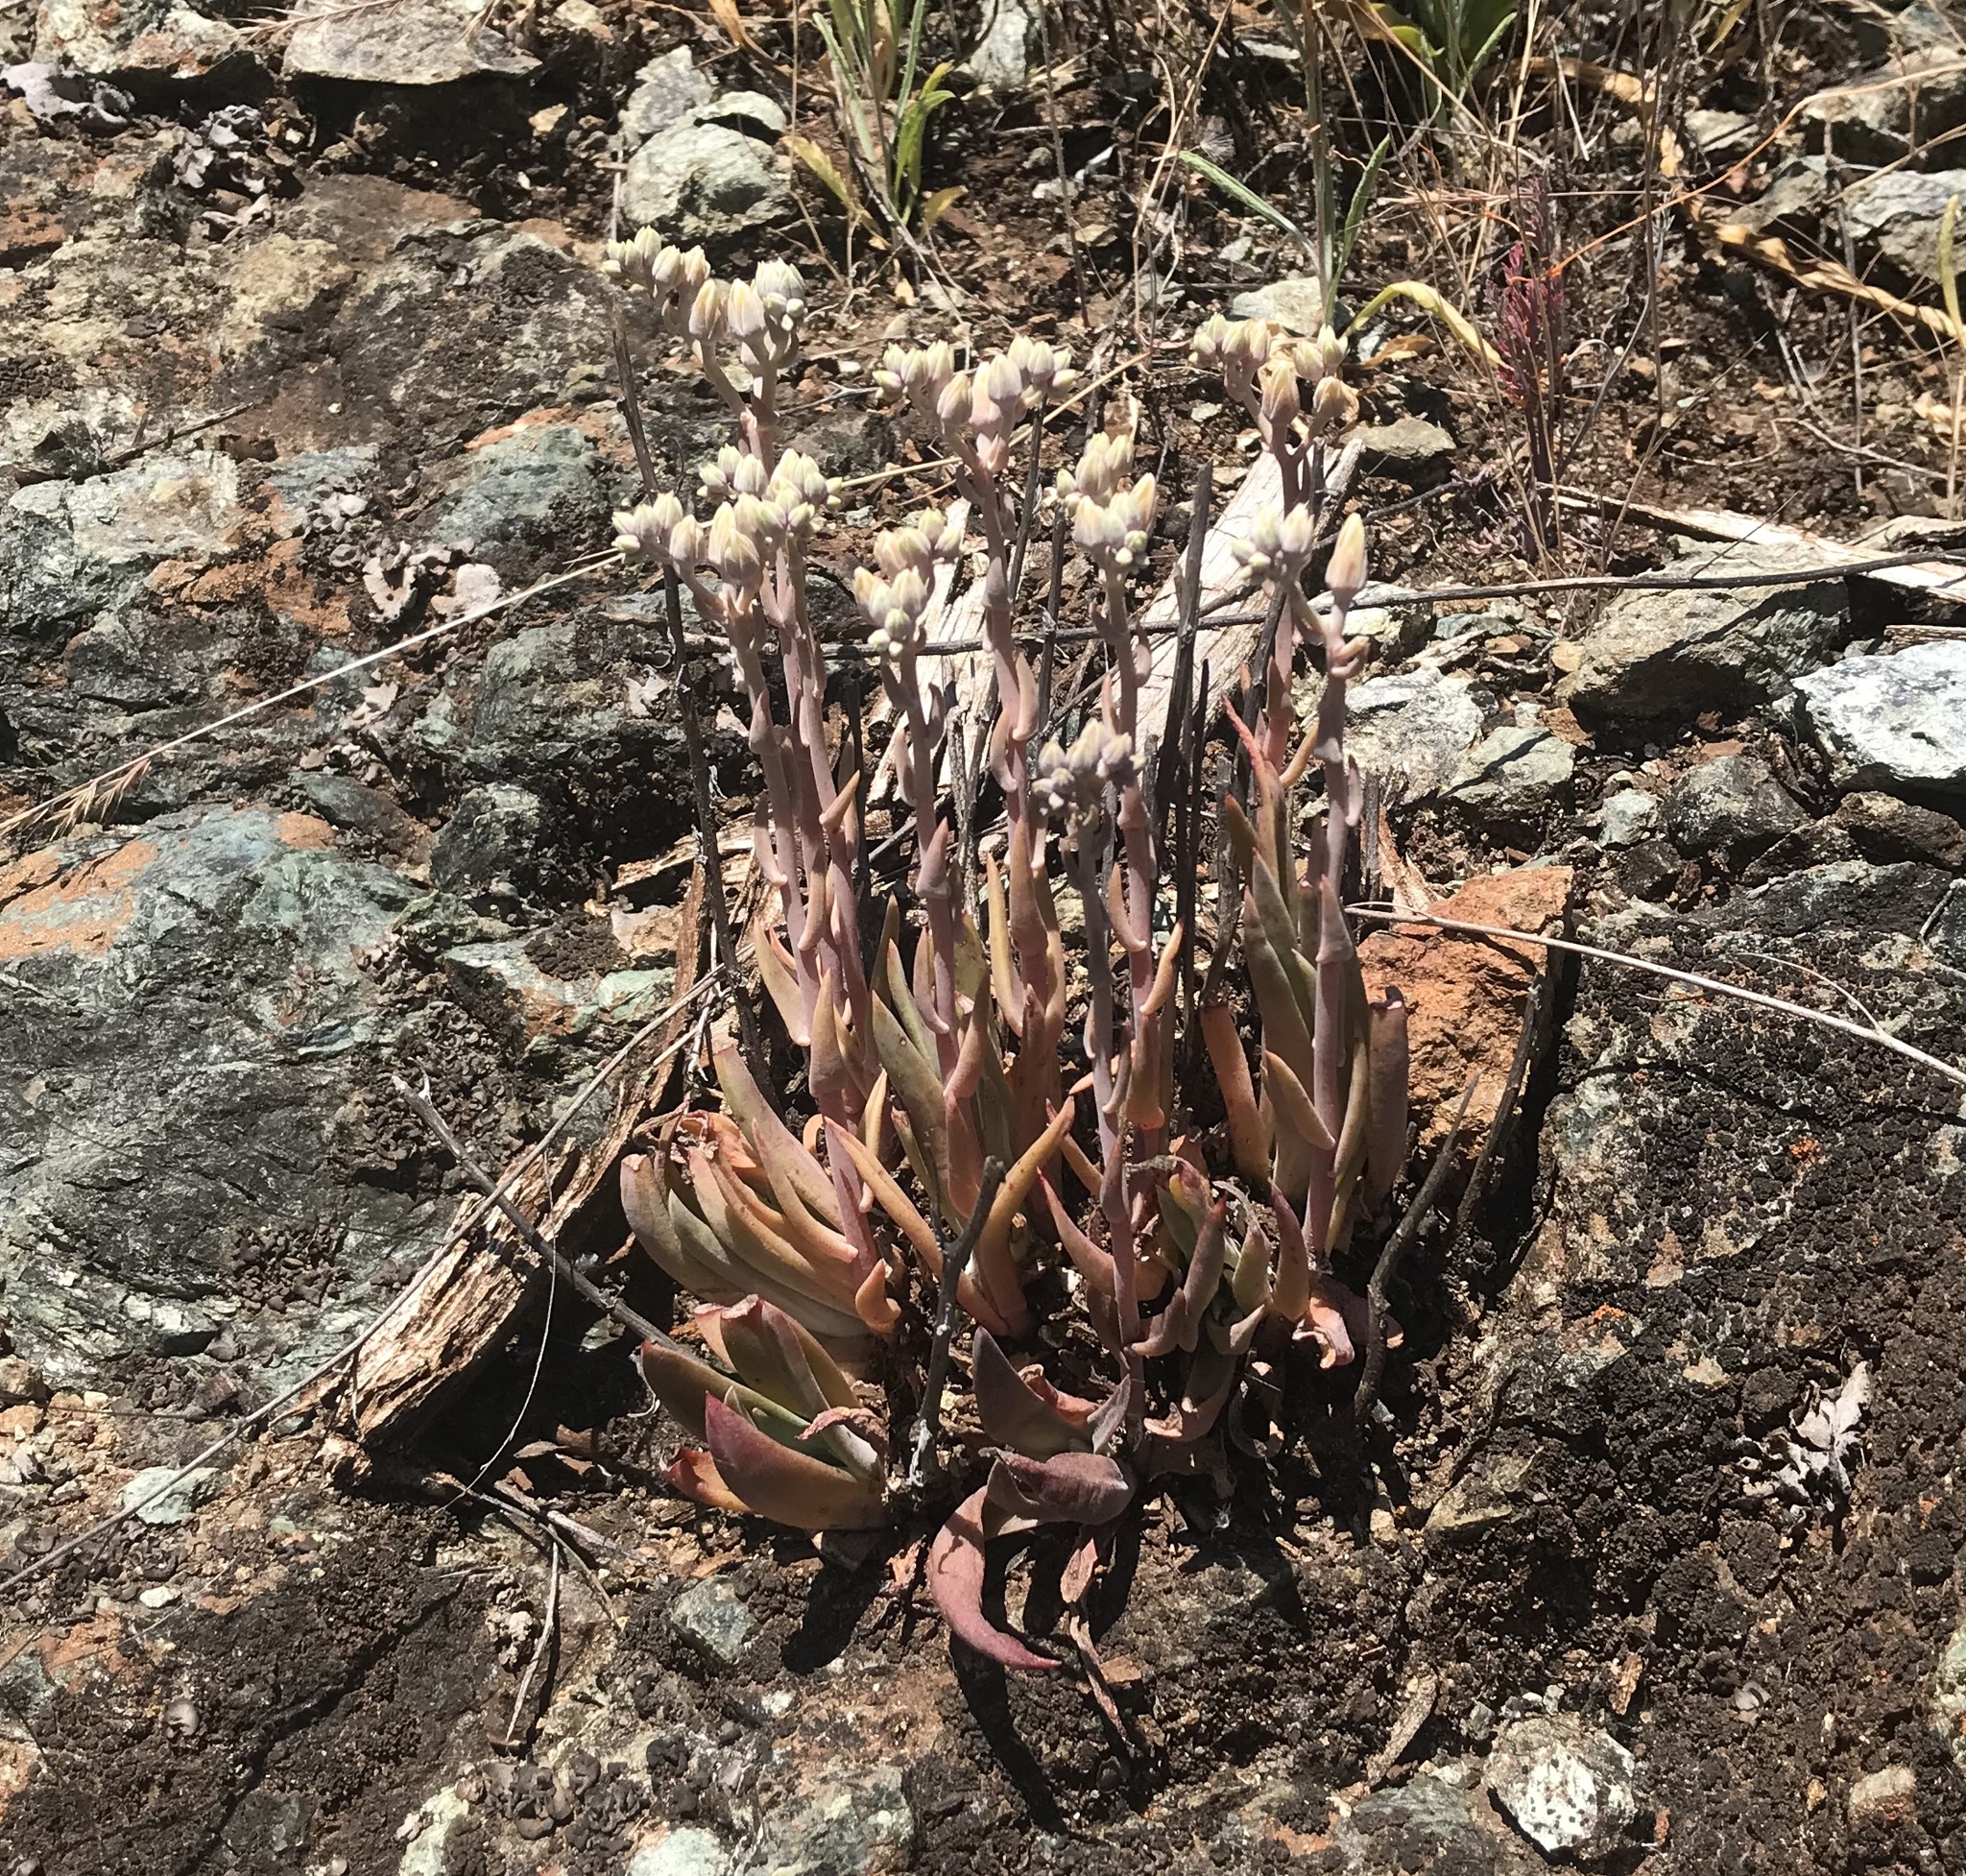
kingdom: Plantae
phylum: Tracheophyta
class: Magnoliopsida
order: Saxifragales
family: Crassulaceae
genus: Dudleya
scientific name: Dudleya abramsii
